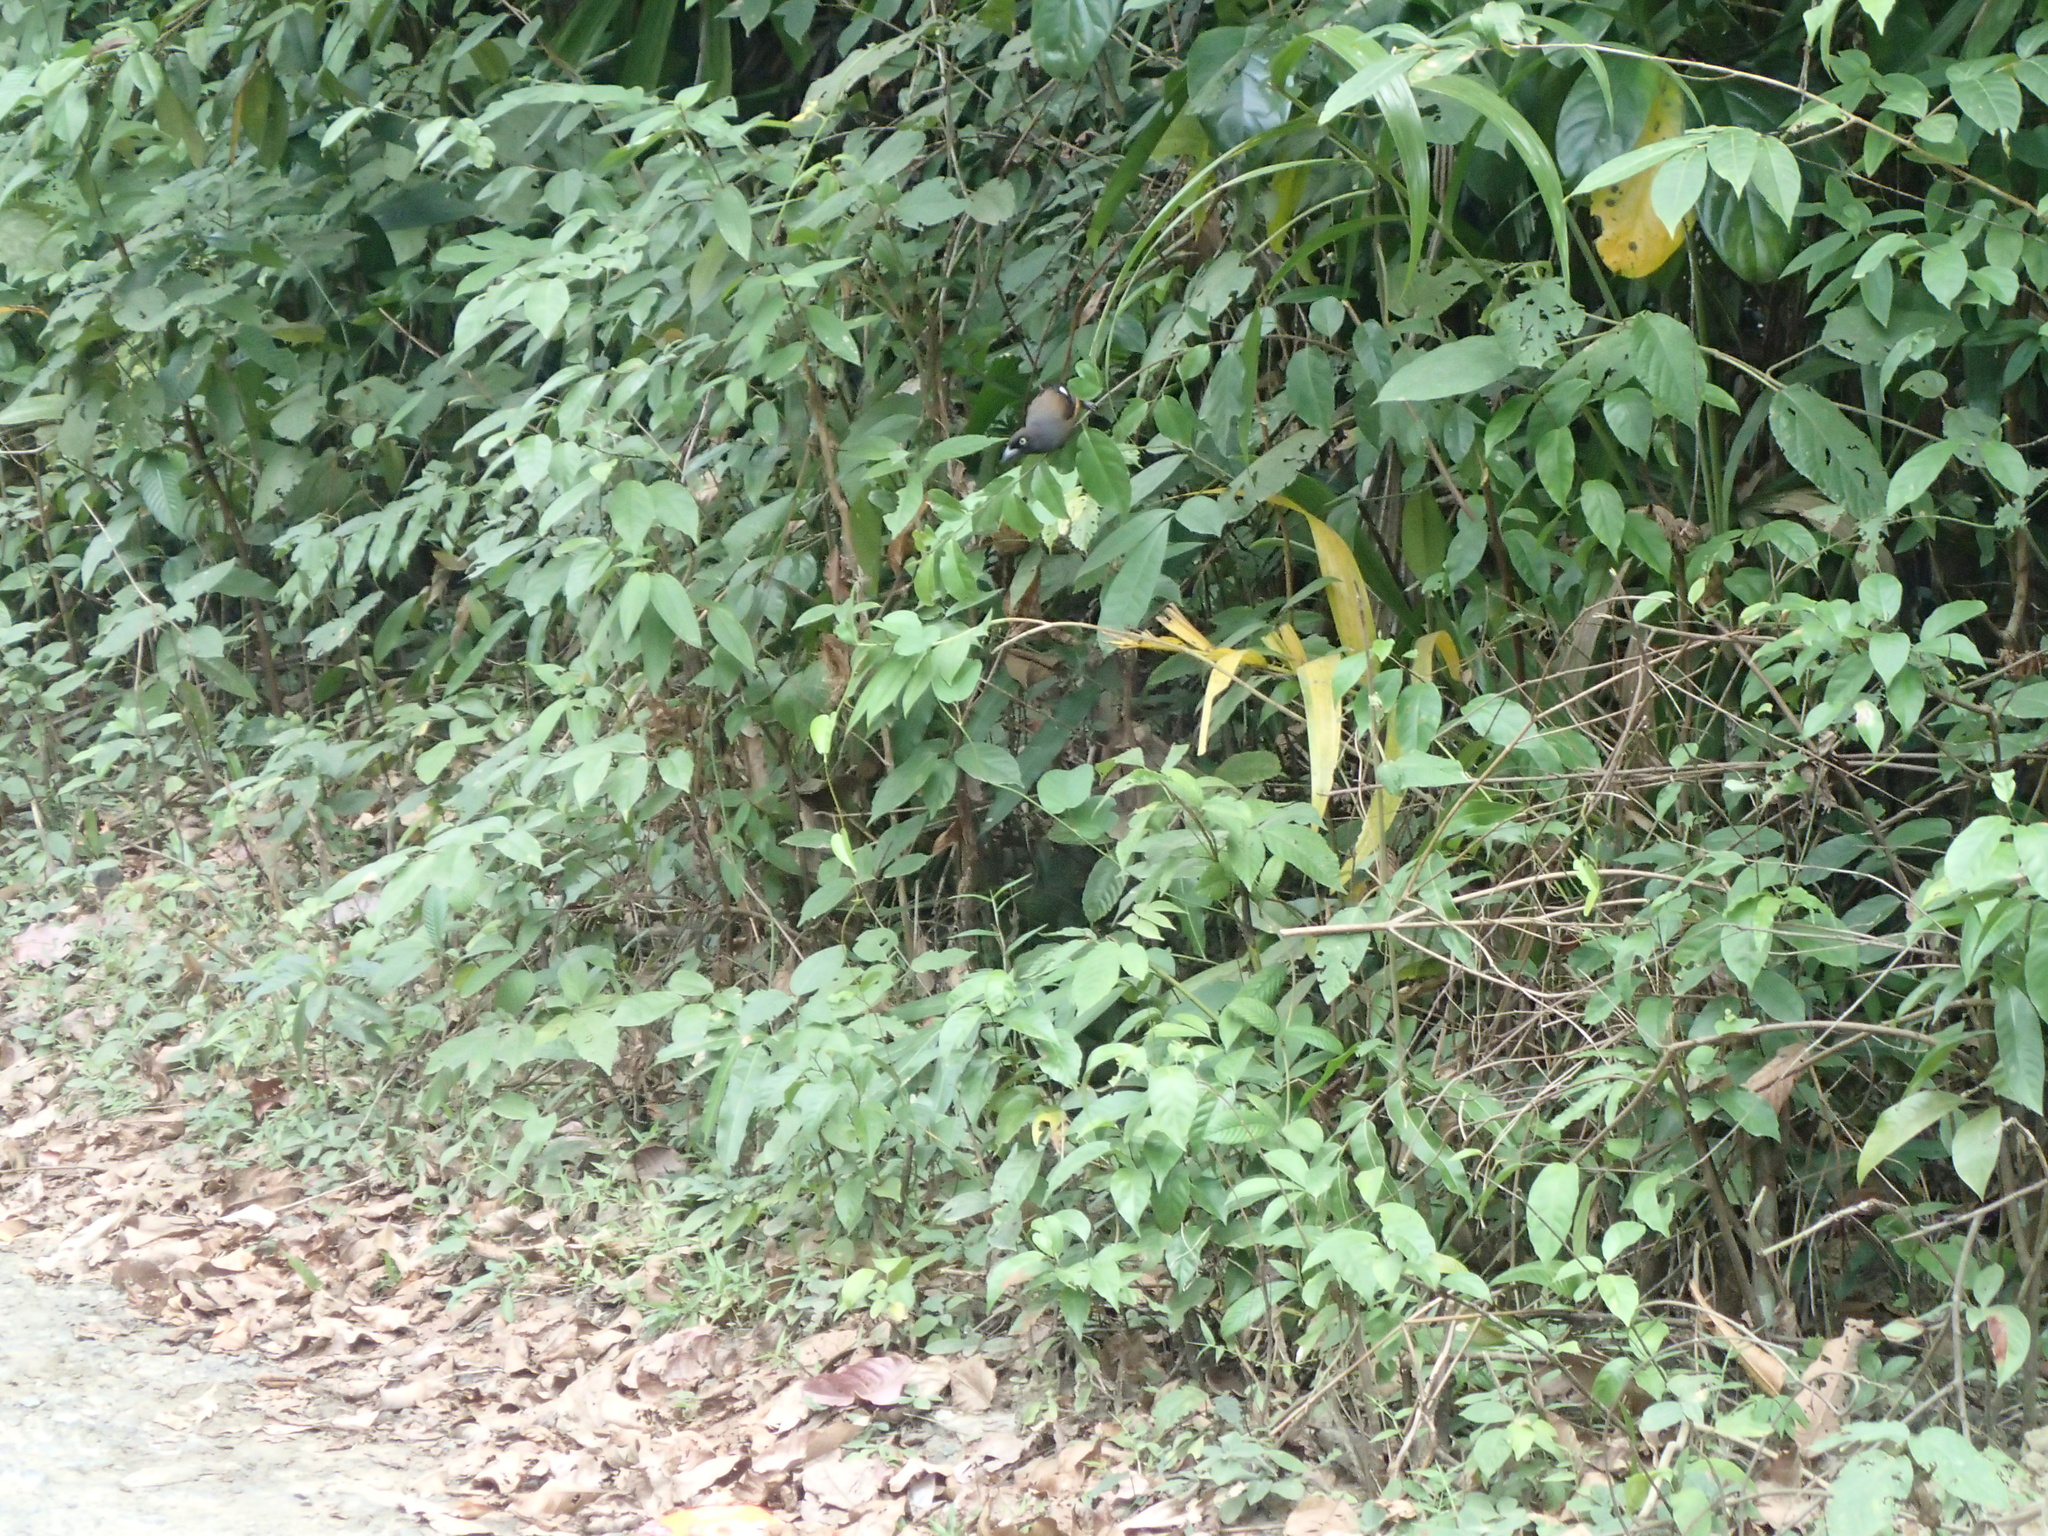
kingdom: Animalia
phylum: Chordata
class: Aves
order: Passeriformes
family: Corvidae
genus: Dendrocitta
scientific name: Dendrocitta bayleii
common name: Andaman treepie
